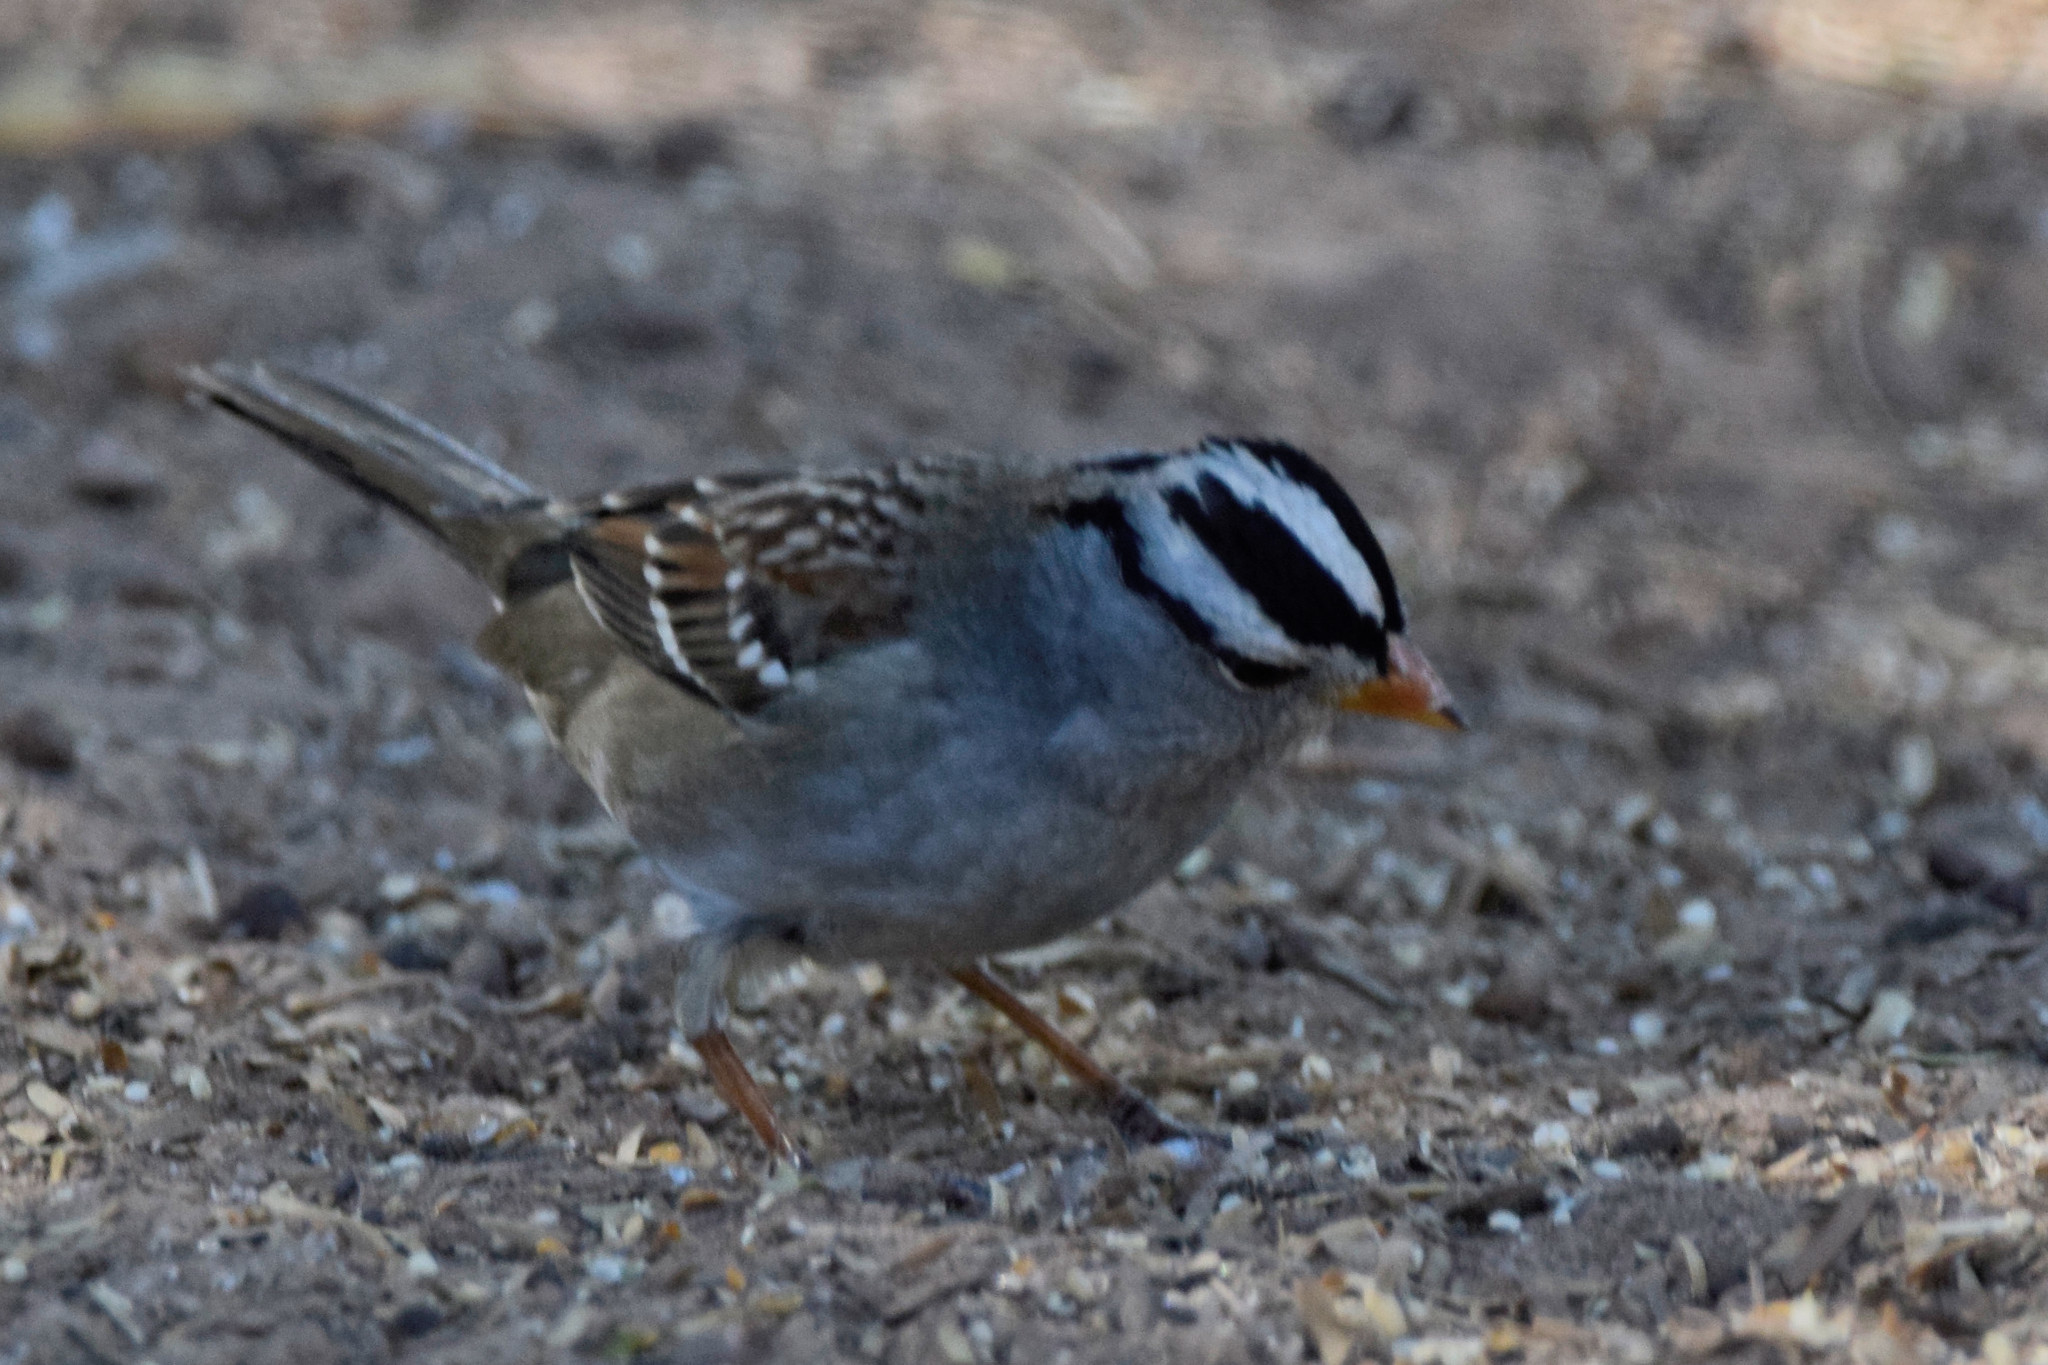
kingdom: Animalia
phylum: Chordata
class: Aves
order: Passeriformes
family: Passerellidae
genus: Zonotrichia
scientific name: Zonotrichia leucophrys
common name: White-crowned sparrow
